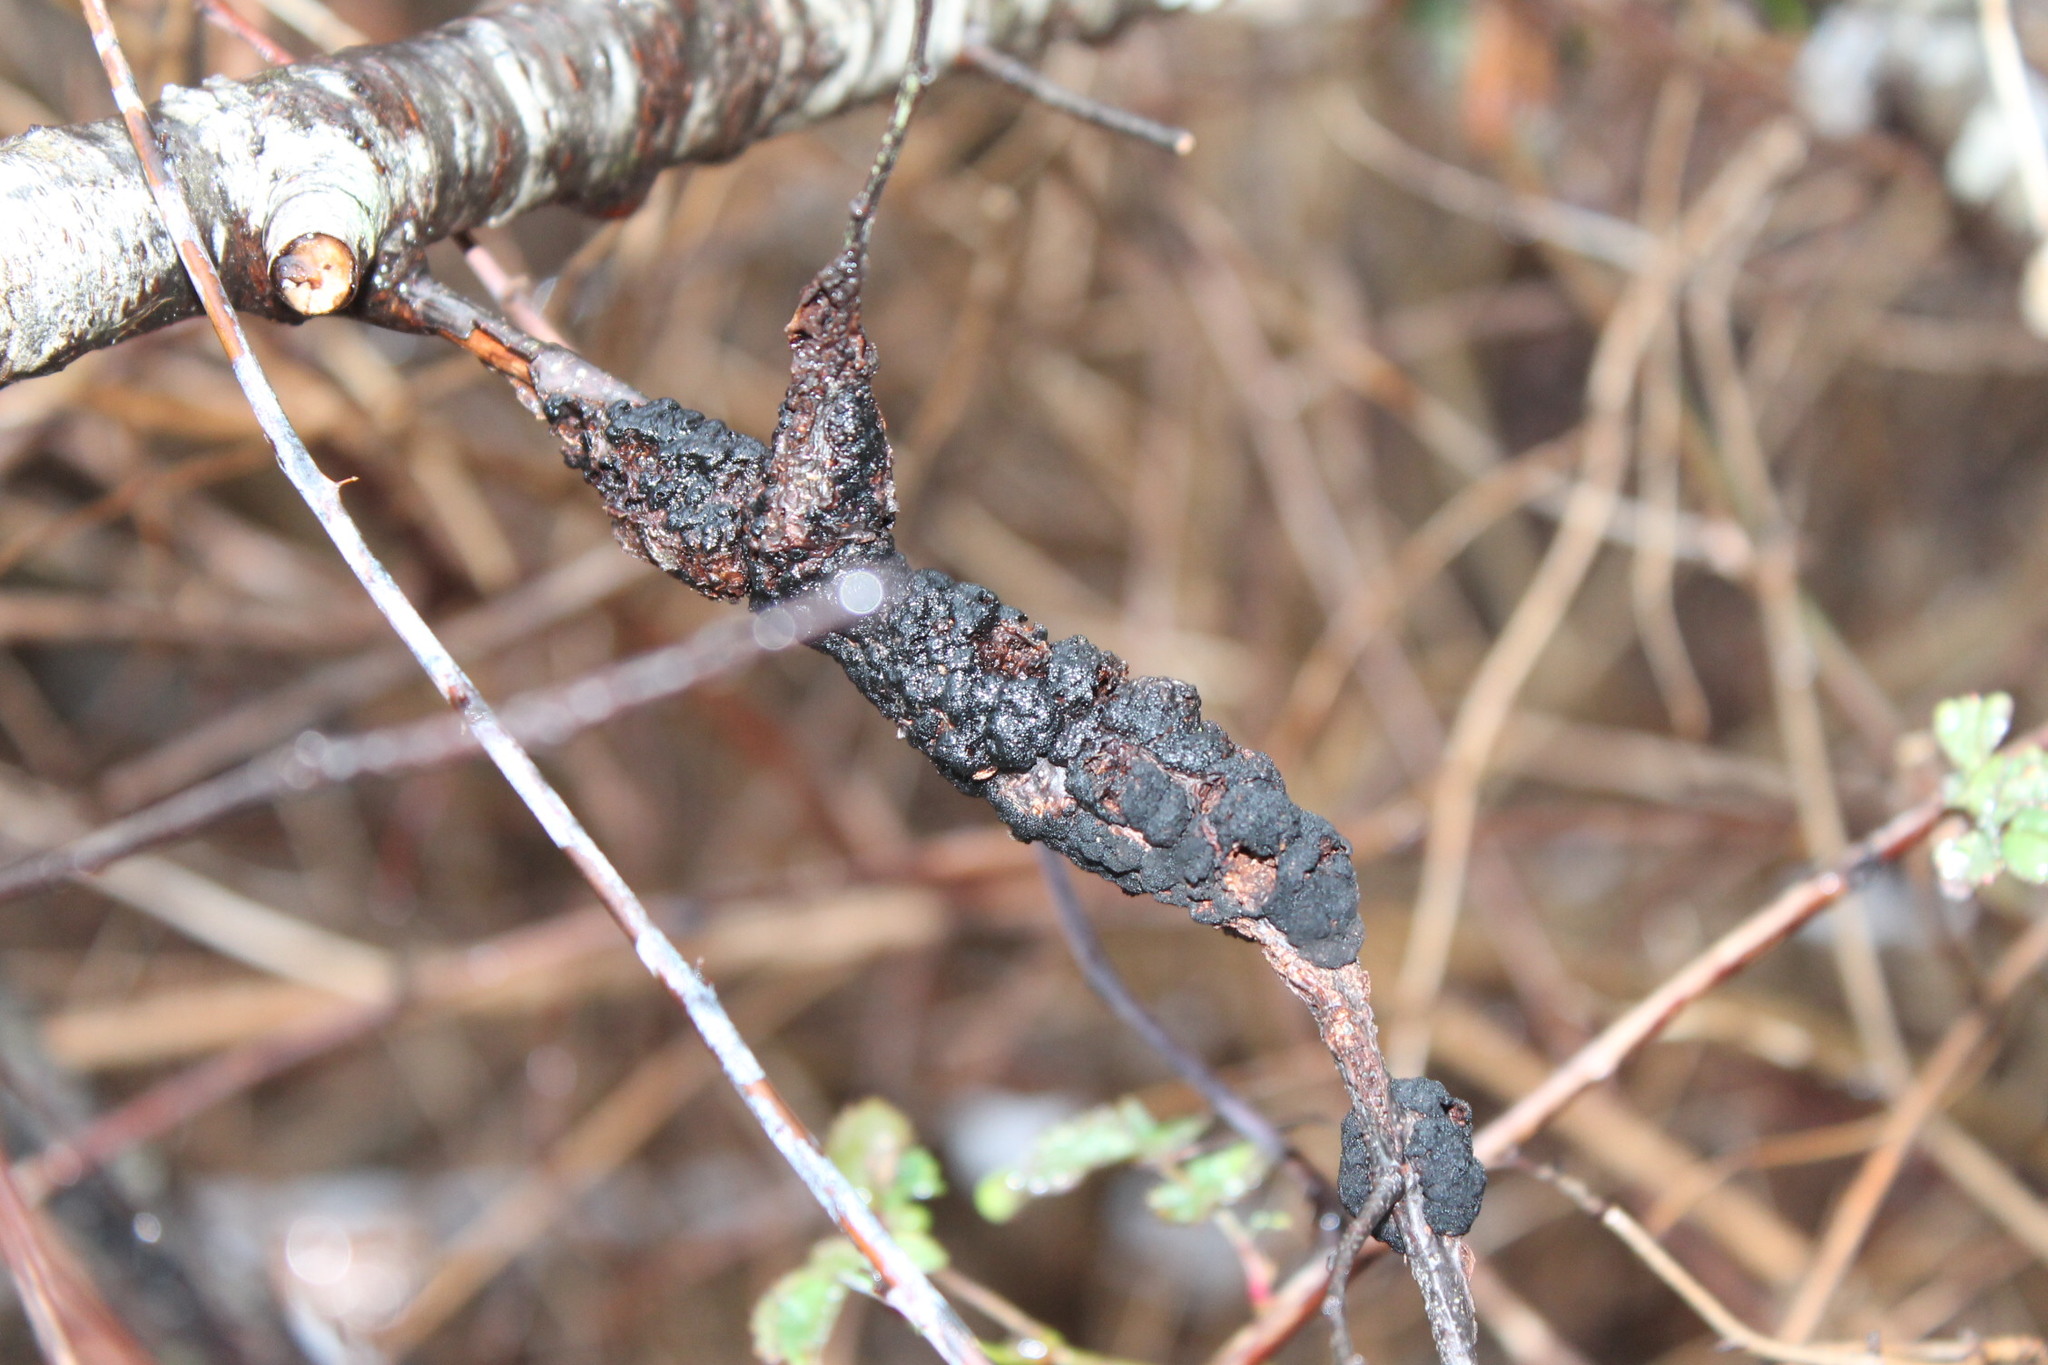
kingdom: Fungi
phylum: Ascomycota
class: Dothideomycetes
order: Venturiales
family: Venturiaceae
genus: Apiosporina
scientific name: Apiosporina morbosa
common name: Black knot
